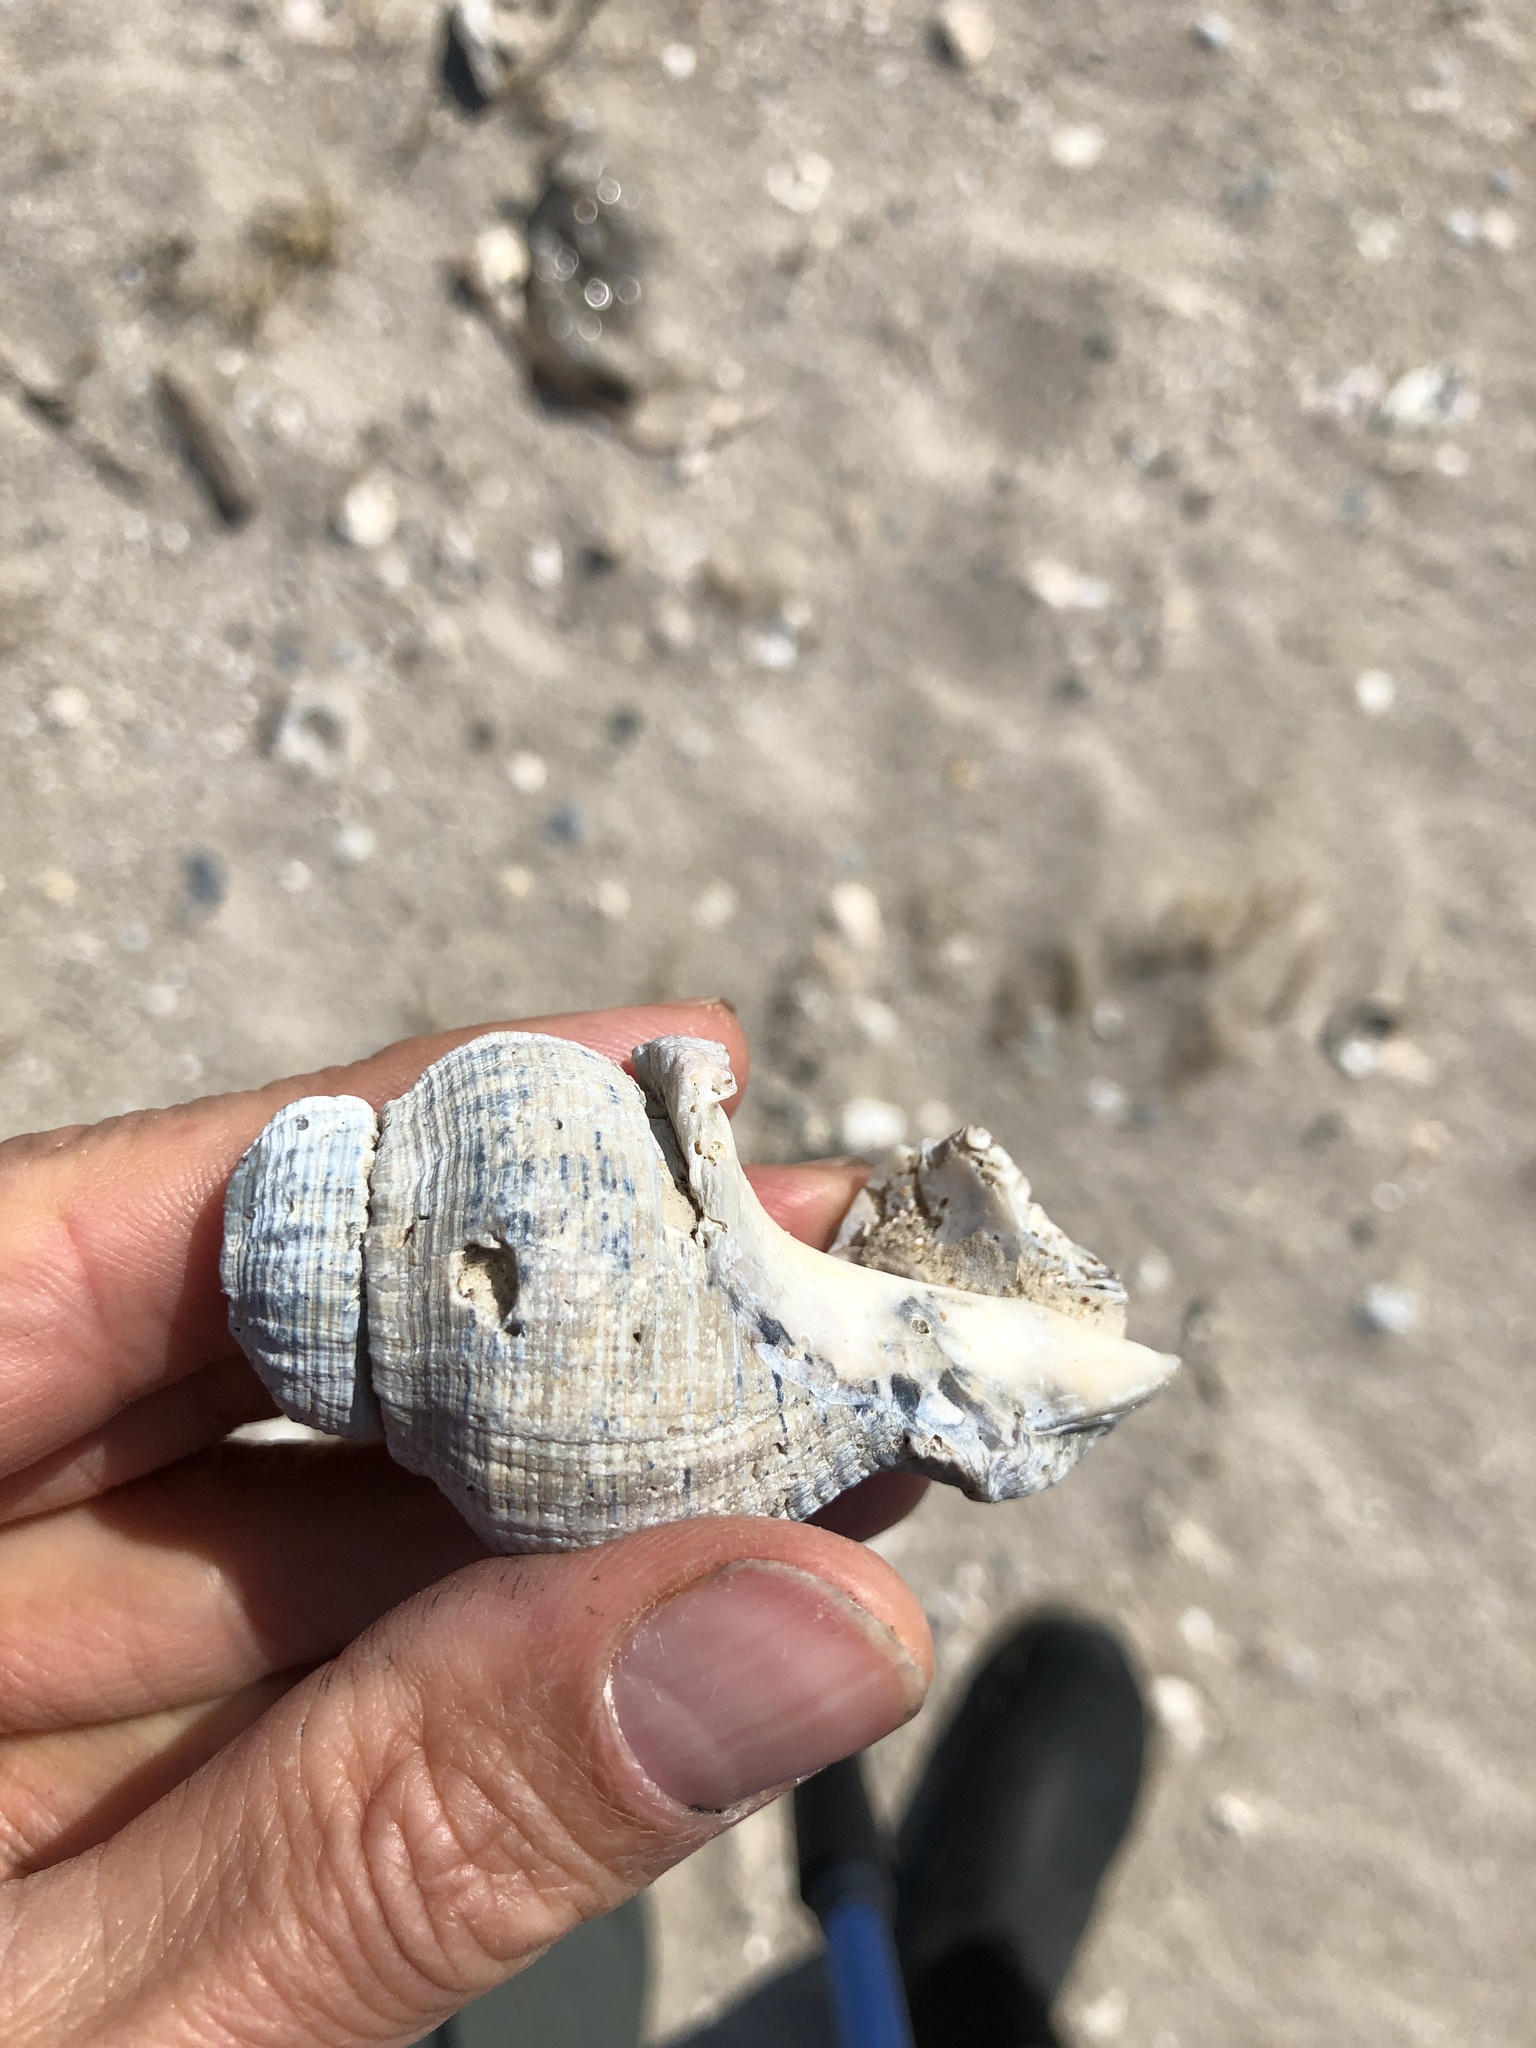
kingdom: Animalia
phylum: Mollusca
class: Gastropoda
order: Neogastropoda
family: Muricidae
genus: Stramonita
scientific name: Stramonita canaliculata
